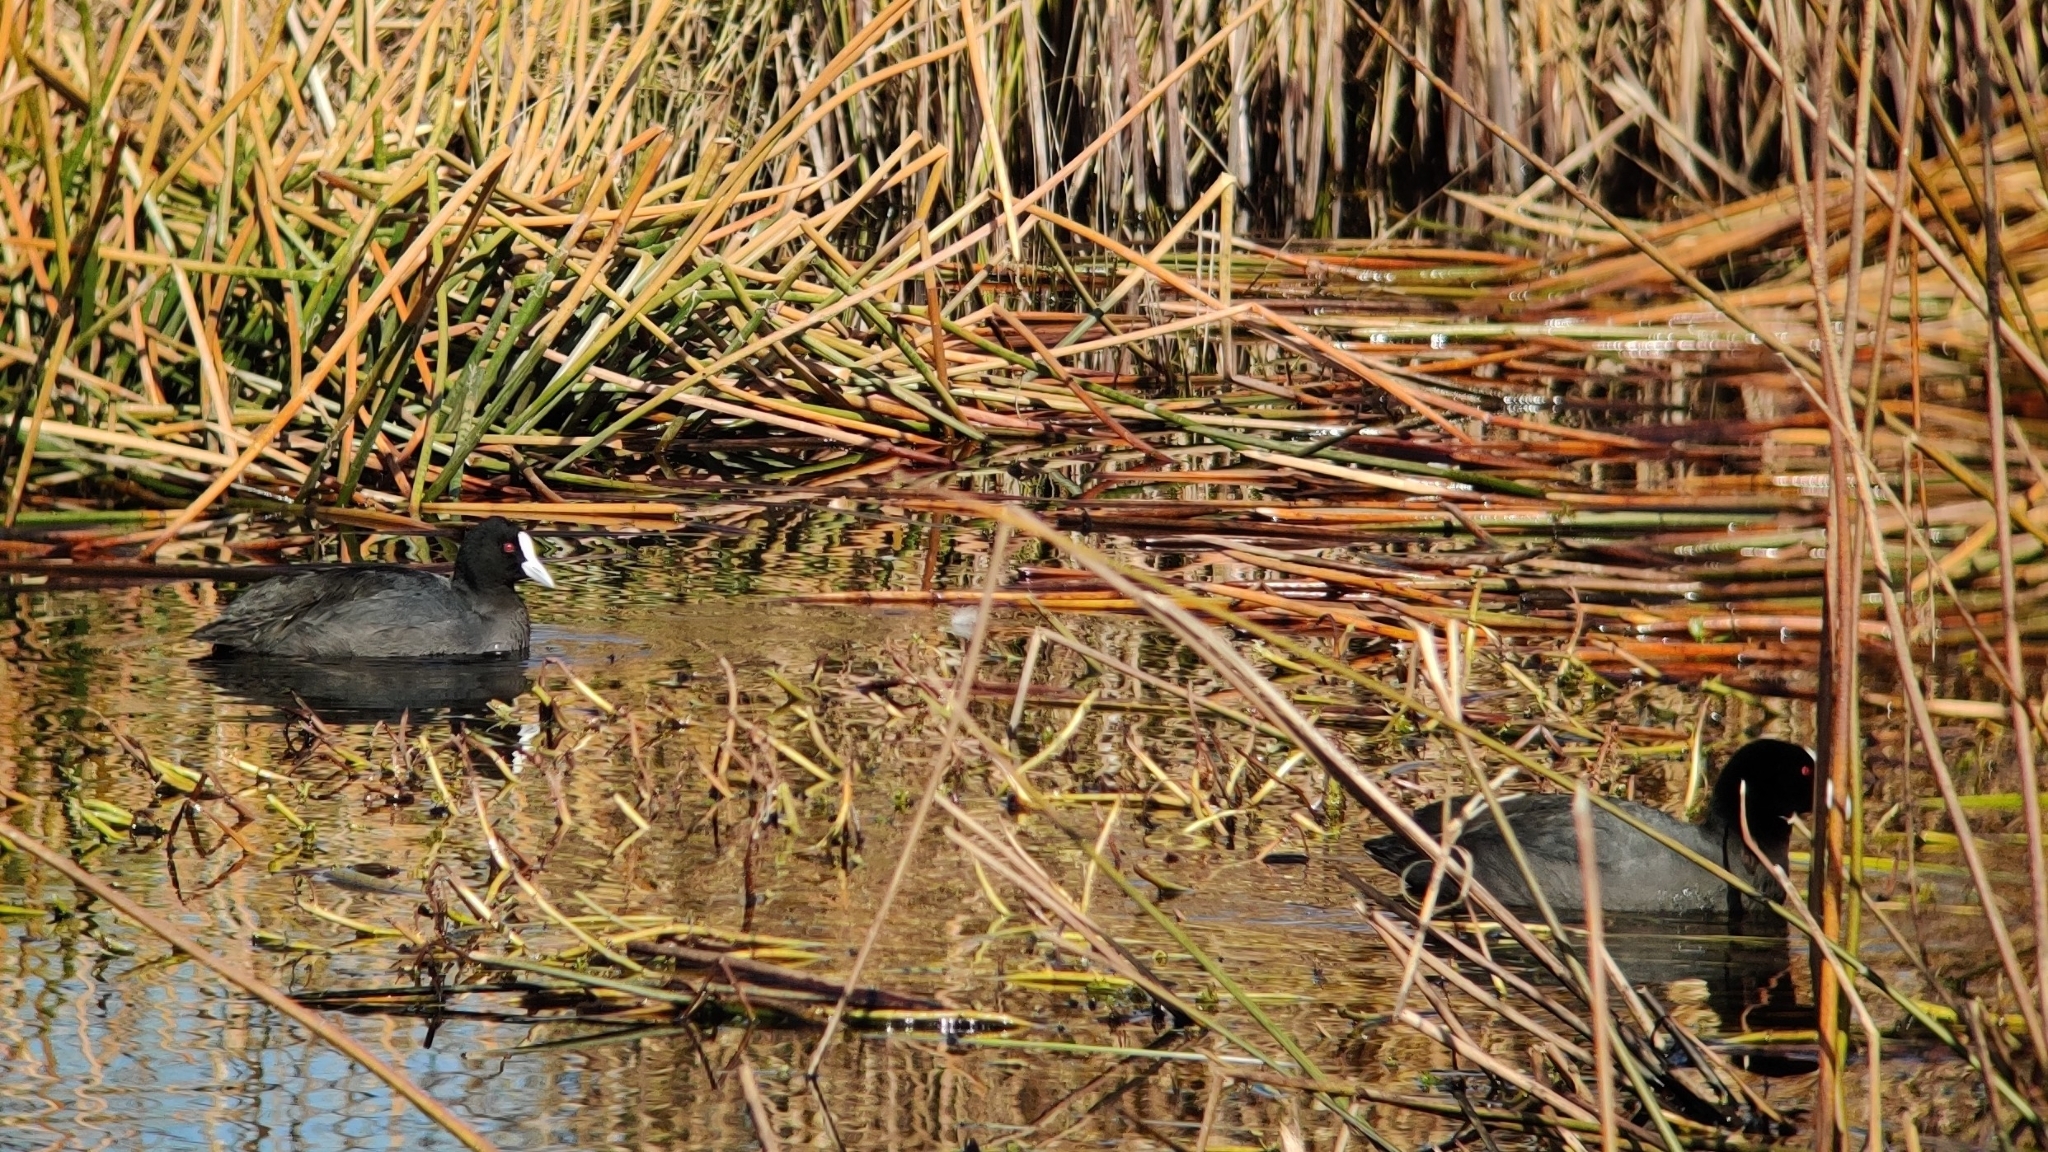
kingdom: Animalia
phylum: Chordata
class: Aves
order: Gruiformes
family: Rallidae
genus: Fulica
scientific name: Fulica atra
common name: Eurasian coot
